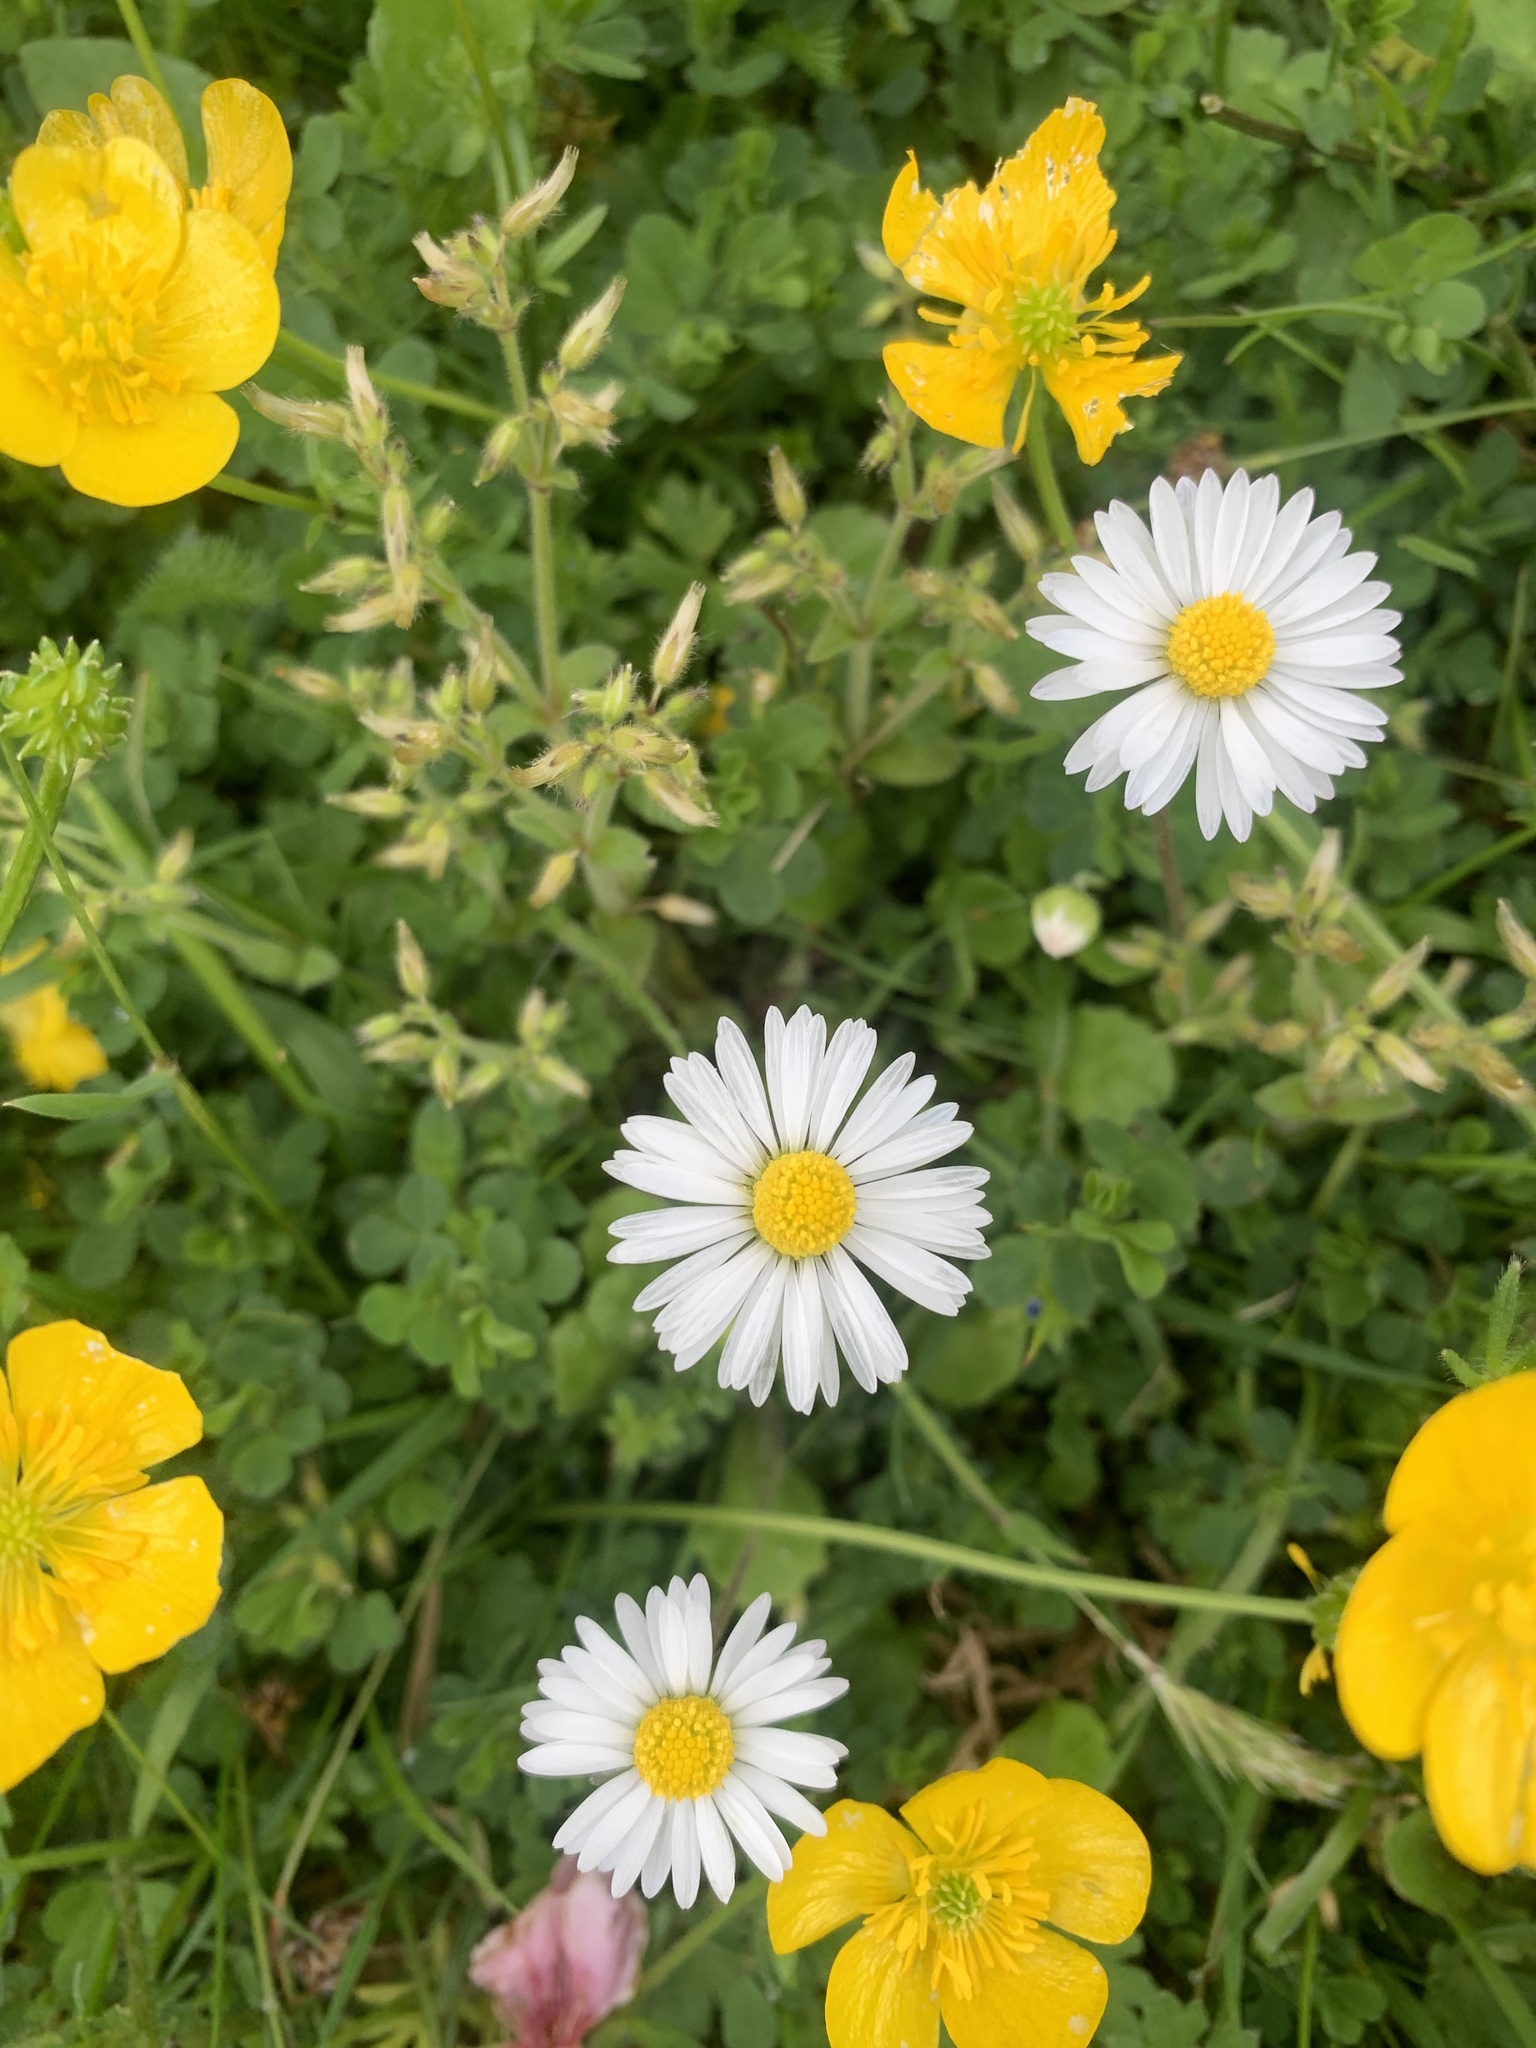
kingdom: Plantae
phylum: Tracheophyta
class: Magnoliopsida
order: Asterales
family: Asteraceae
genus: Bellis
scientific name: Bellis perennis
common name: Lawndaisy
